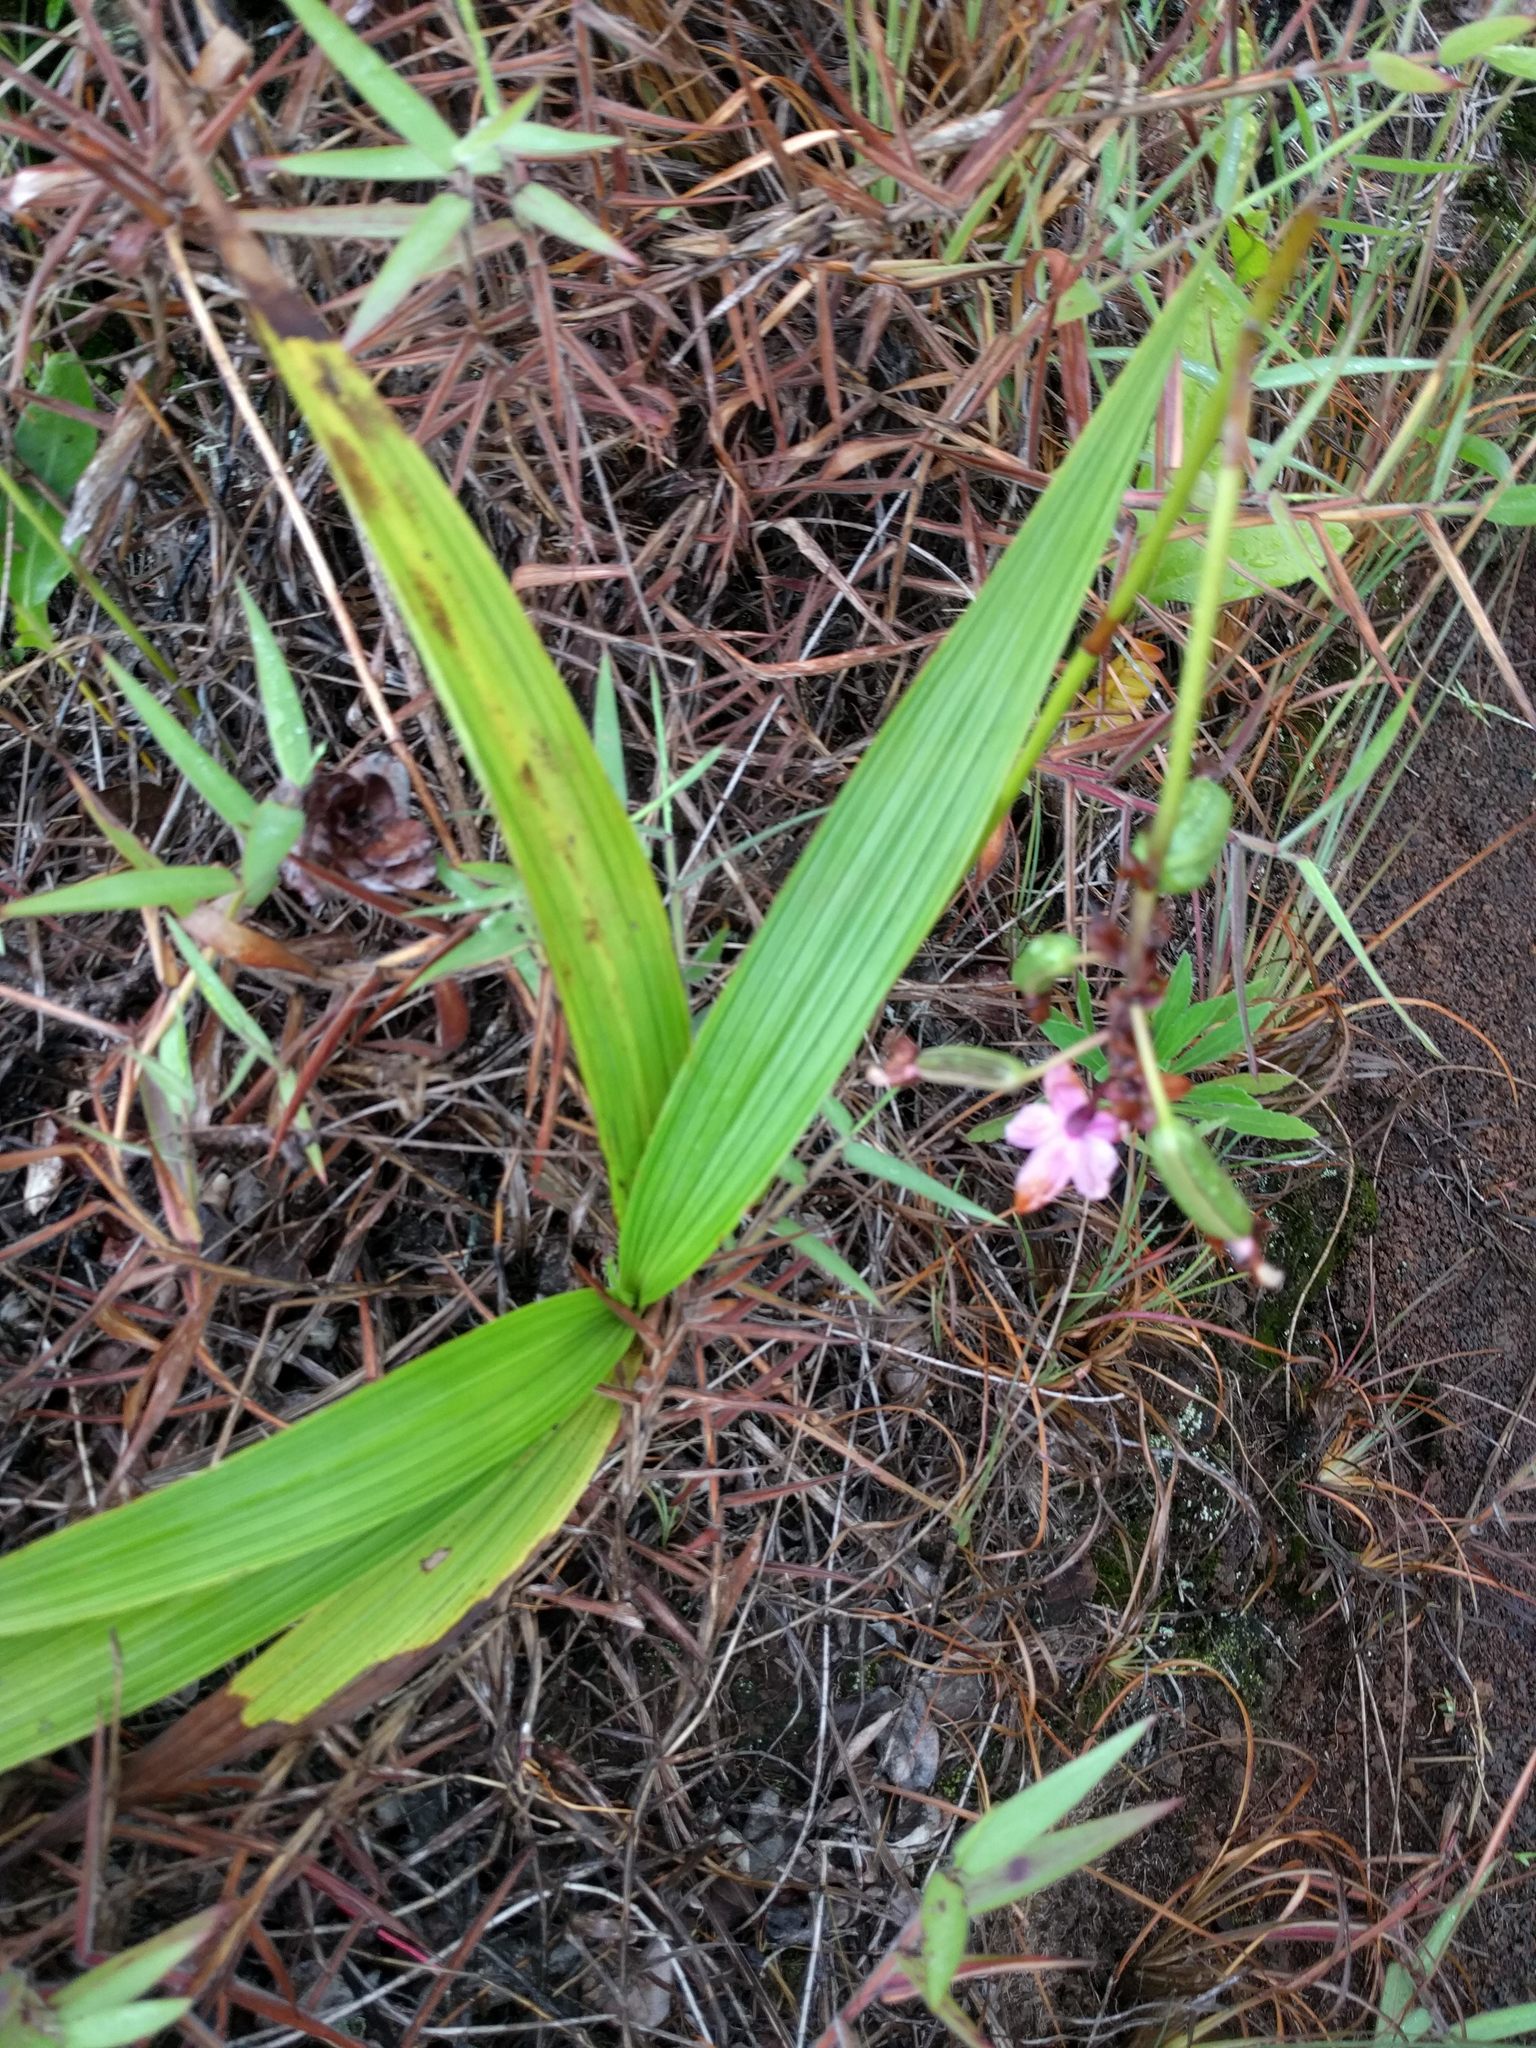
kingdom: Plantae
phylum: Tracheophyta
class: Liliopsida
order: Asparagales
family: Orchidaceae
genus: Spathoglottis
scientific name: Spathoglottis plicata
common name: Philippine ground orchid
